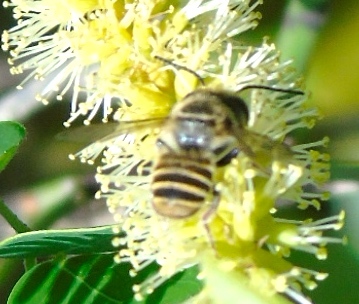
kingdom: Animalia
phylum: Arthropoda
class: Insecta
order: Hymenoptera
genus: Leptorachis
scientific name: Leptorachis
